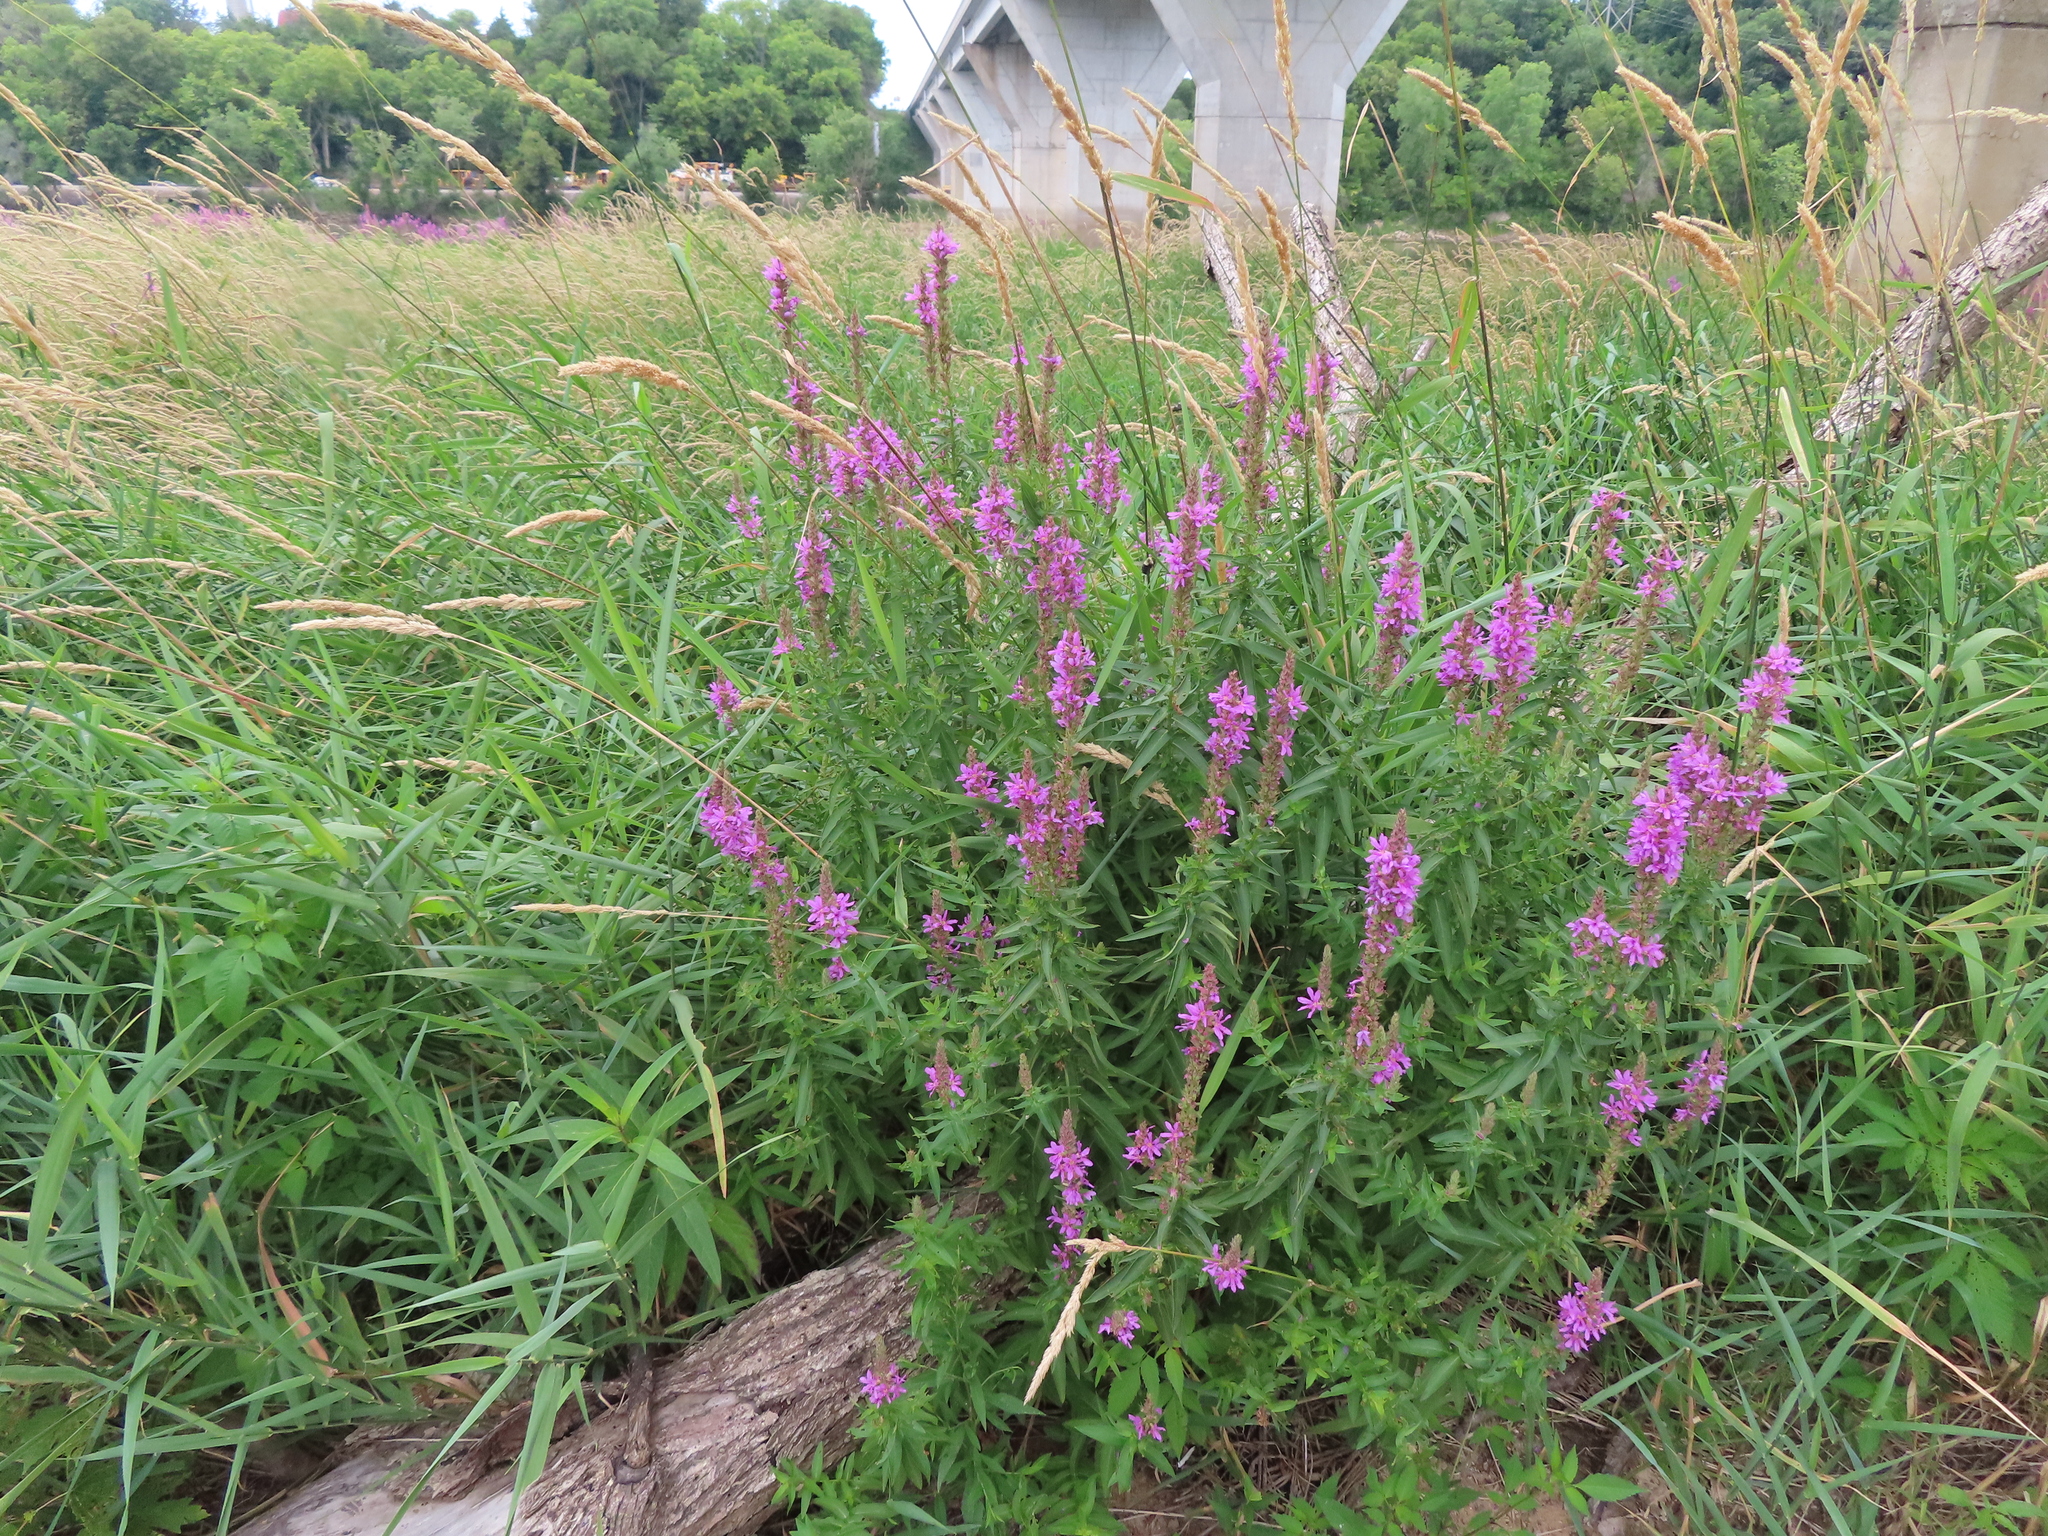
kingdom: Plantae
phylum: Tracheophyta
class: Magnoliopsida
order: Myrtales
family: Lythraceae
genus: Lythrum
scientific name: Lythrum salicaria
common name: Purple loosestrife
